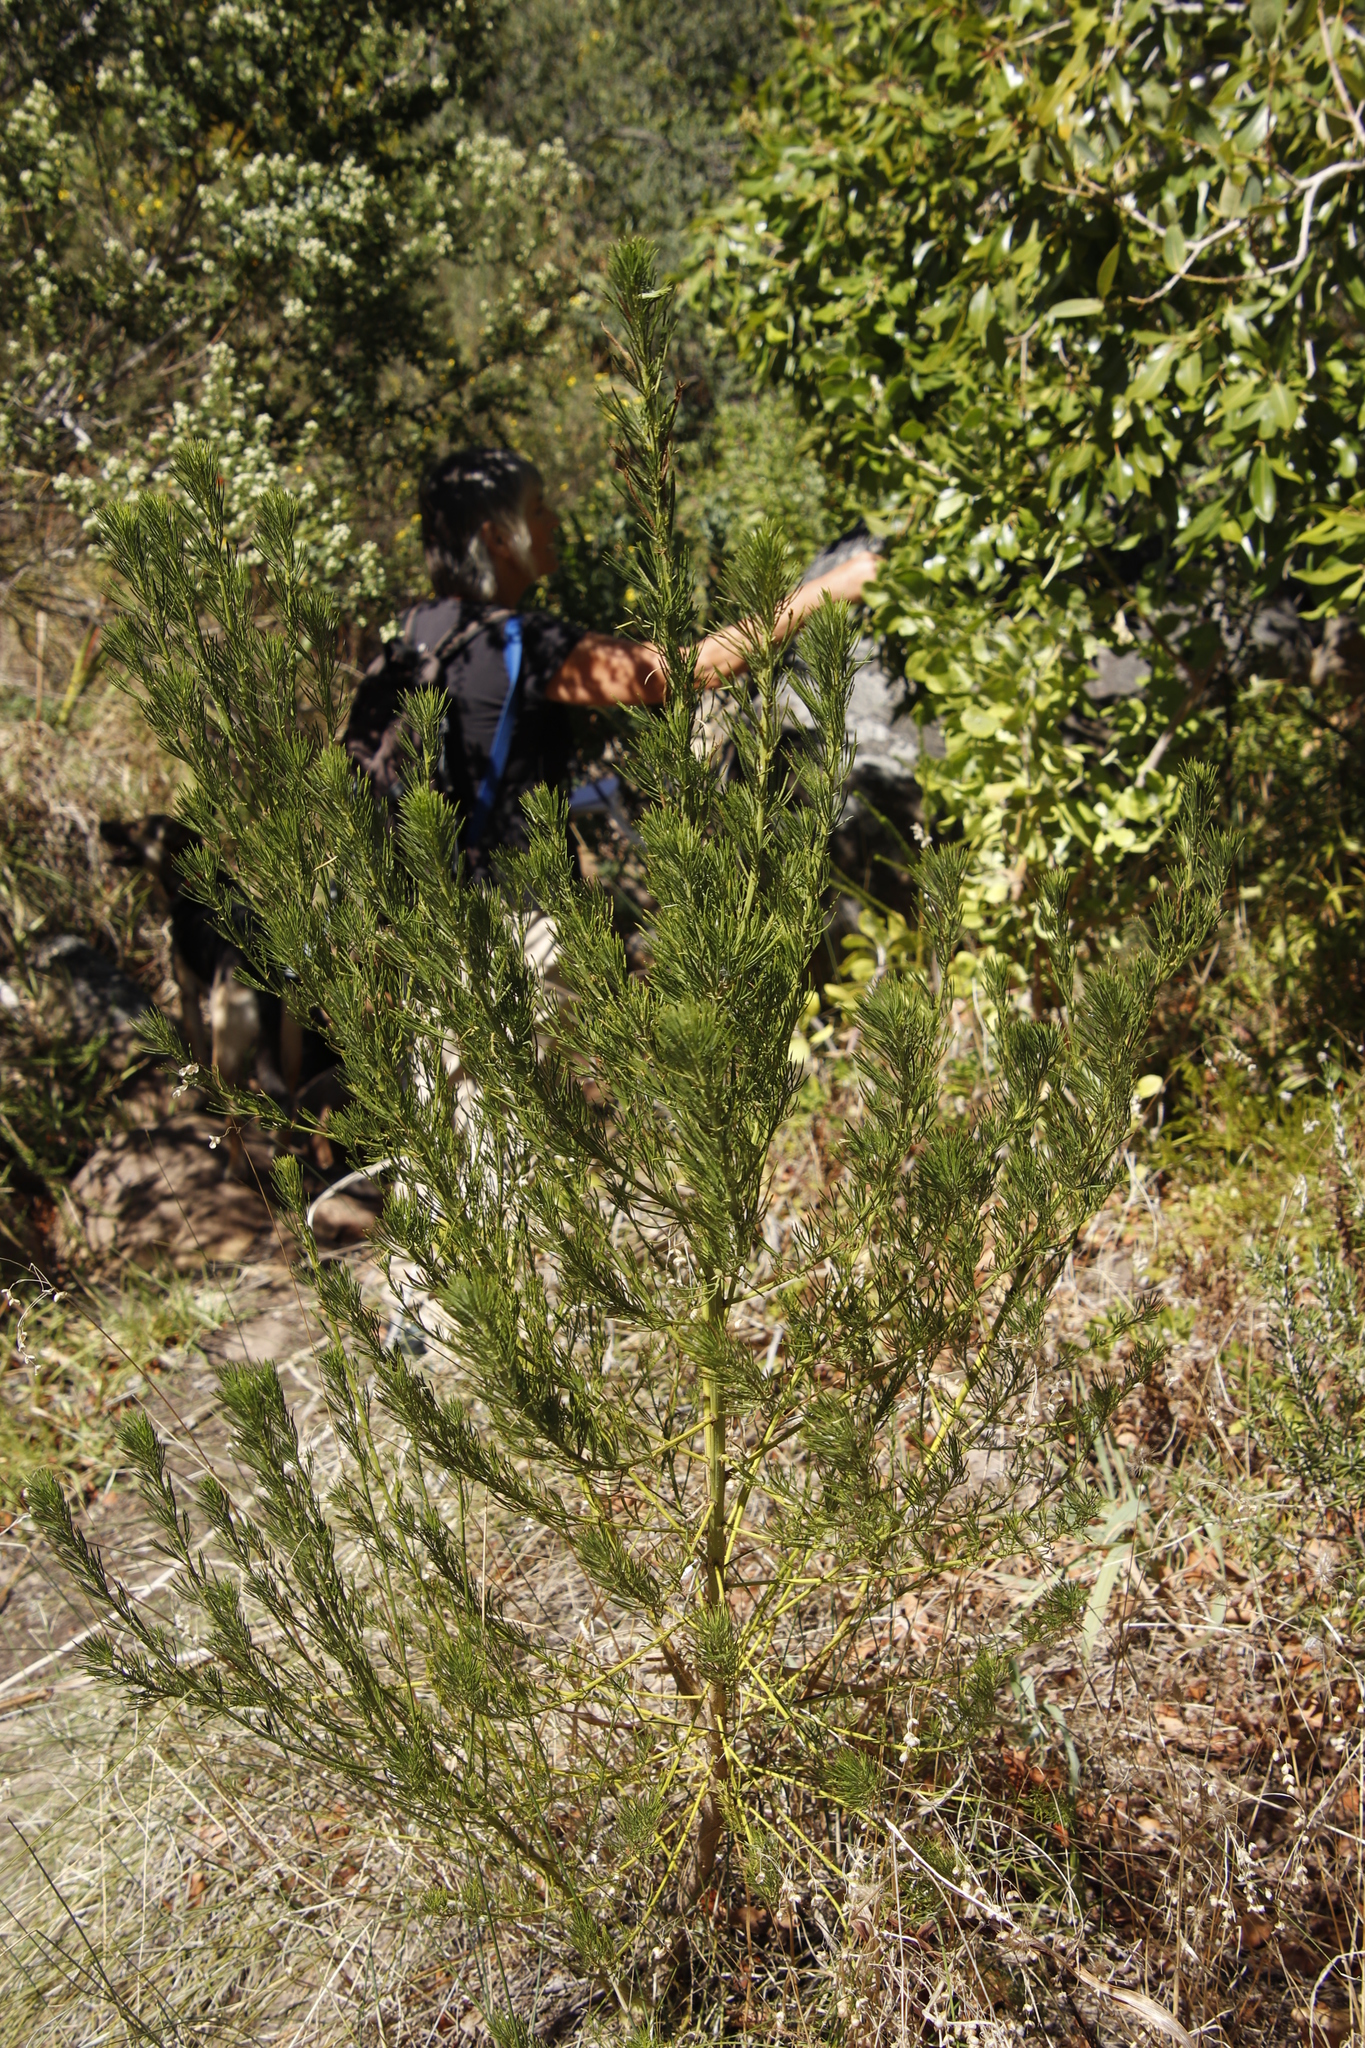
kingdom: Plantae
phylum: Tracheophyta
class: Magnoliopsida
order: Fabales
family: Fabaceae
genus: Psoralea
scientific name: Psoralea pinnata
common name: African scurfpea
